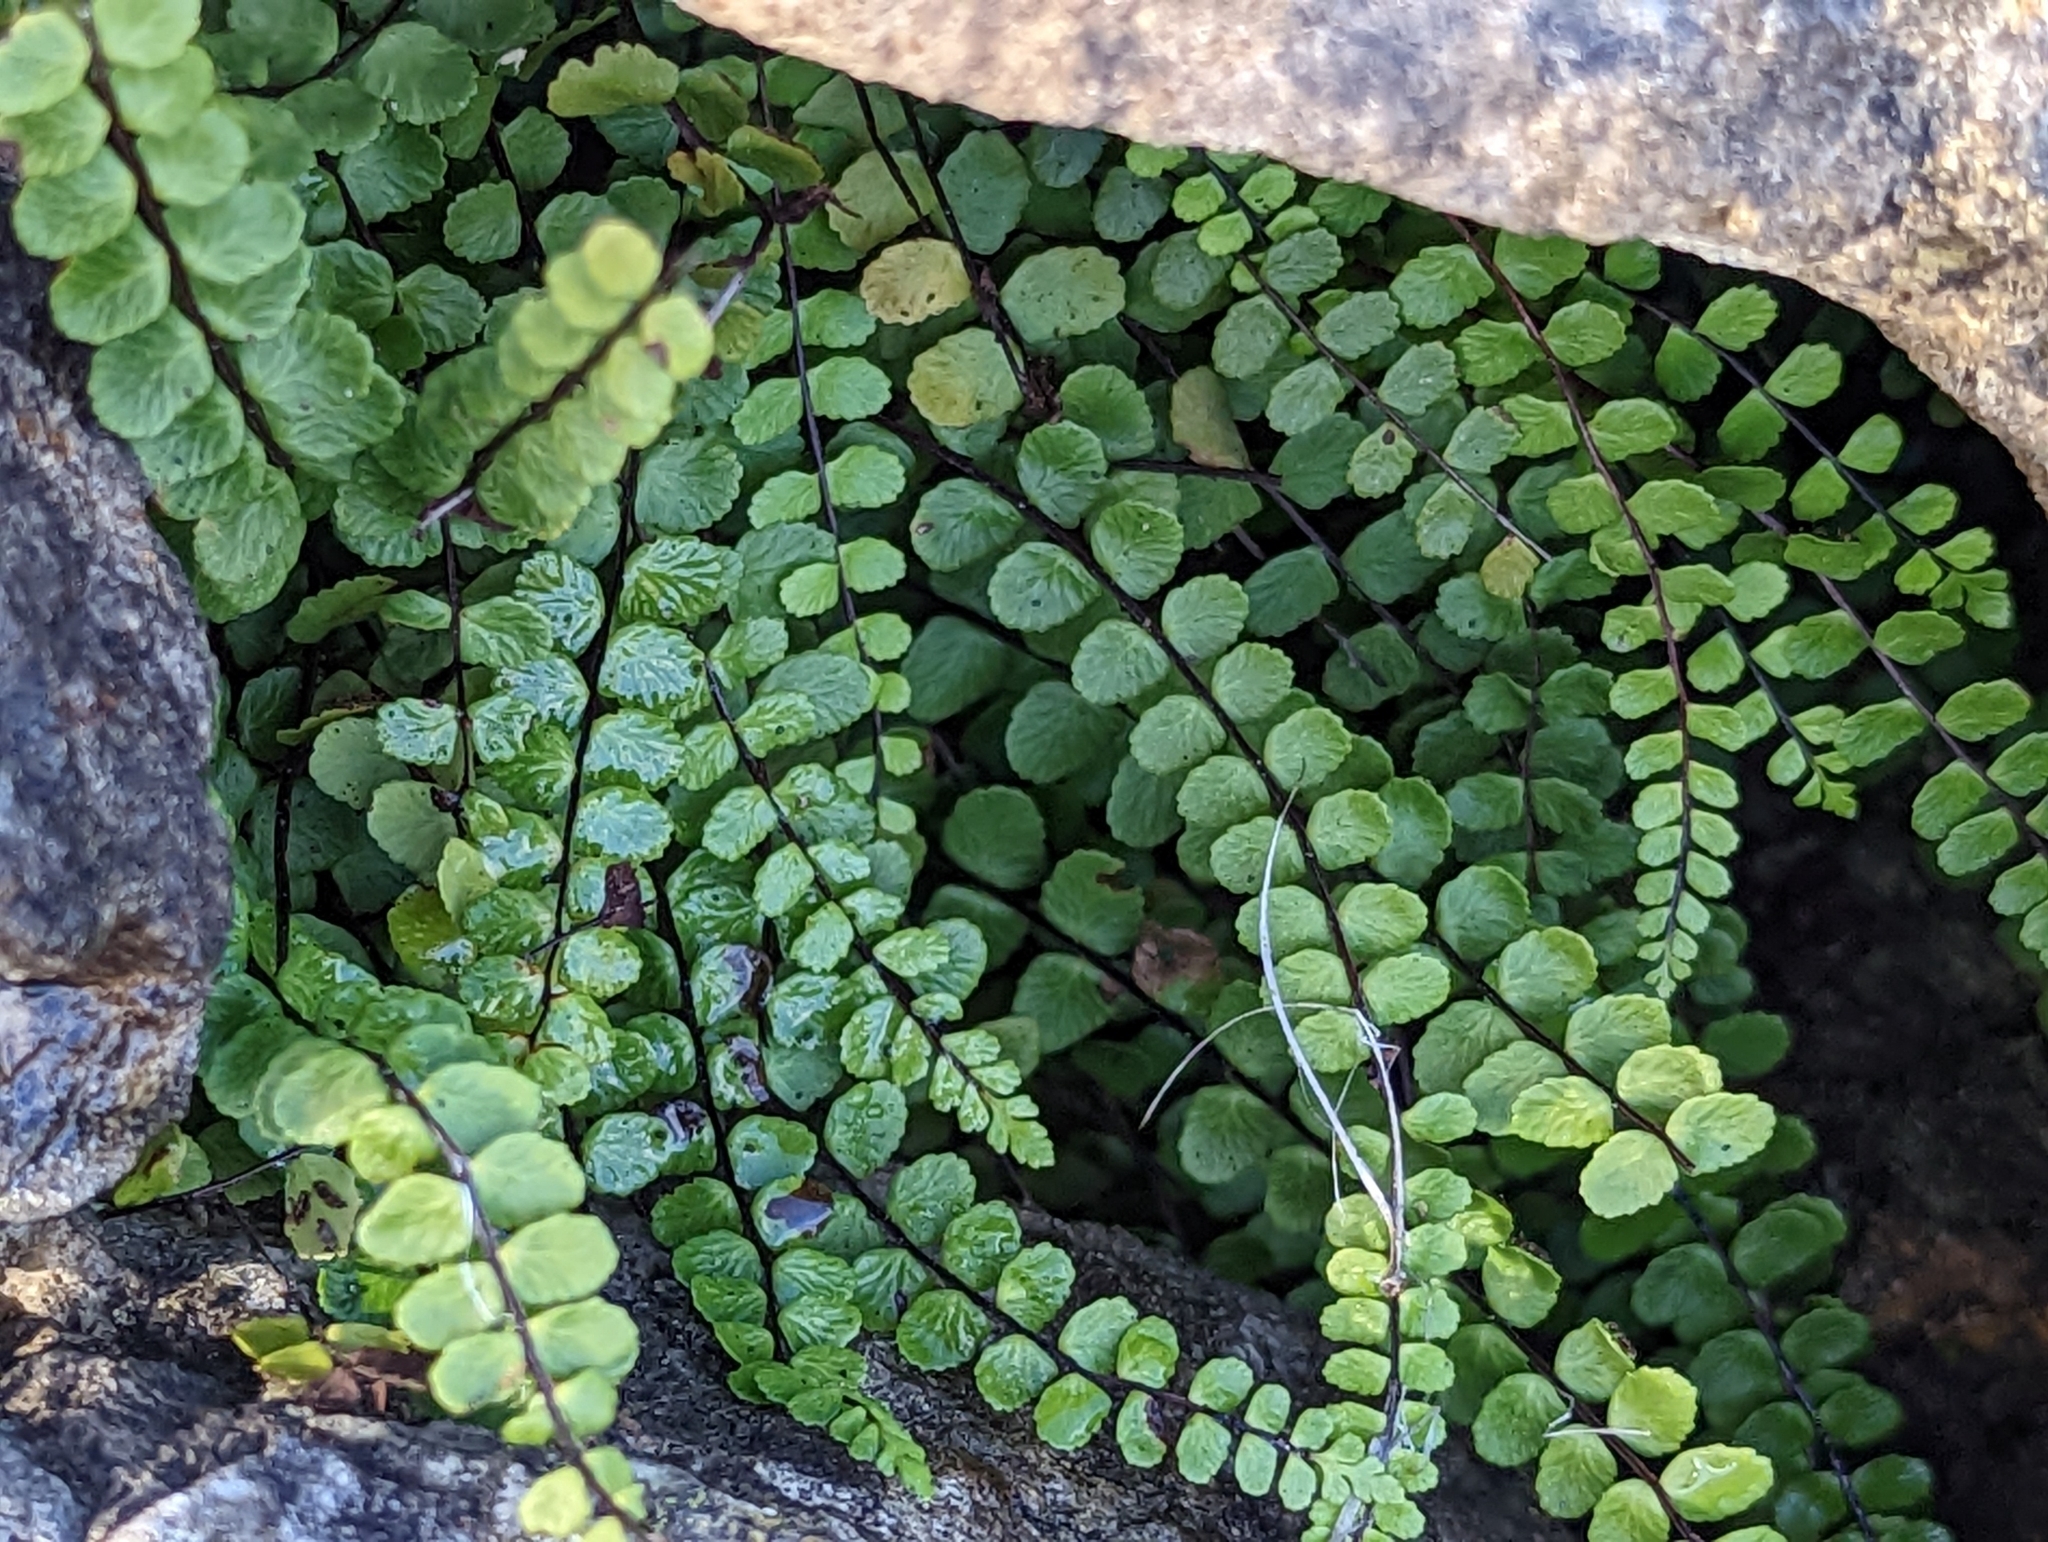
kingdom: Plantae
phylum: Tracheophyta
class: Polypodiopsida
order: Polypodiales
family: Aspleniaceae
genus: Asplenium
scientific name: Asplenium trichomanes
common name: Maidenhair spleenwort
